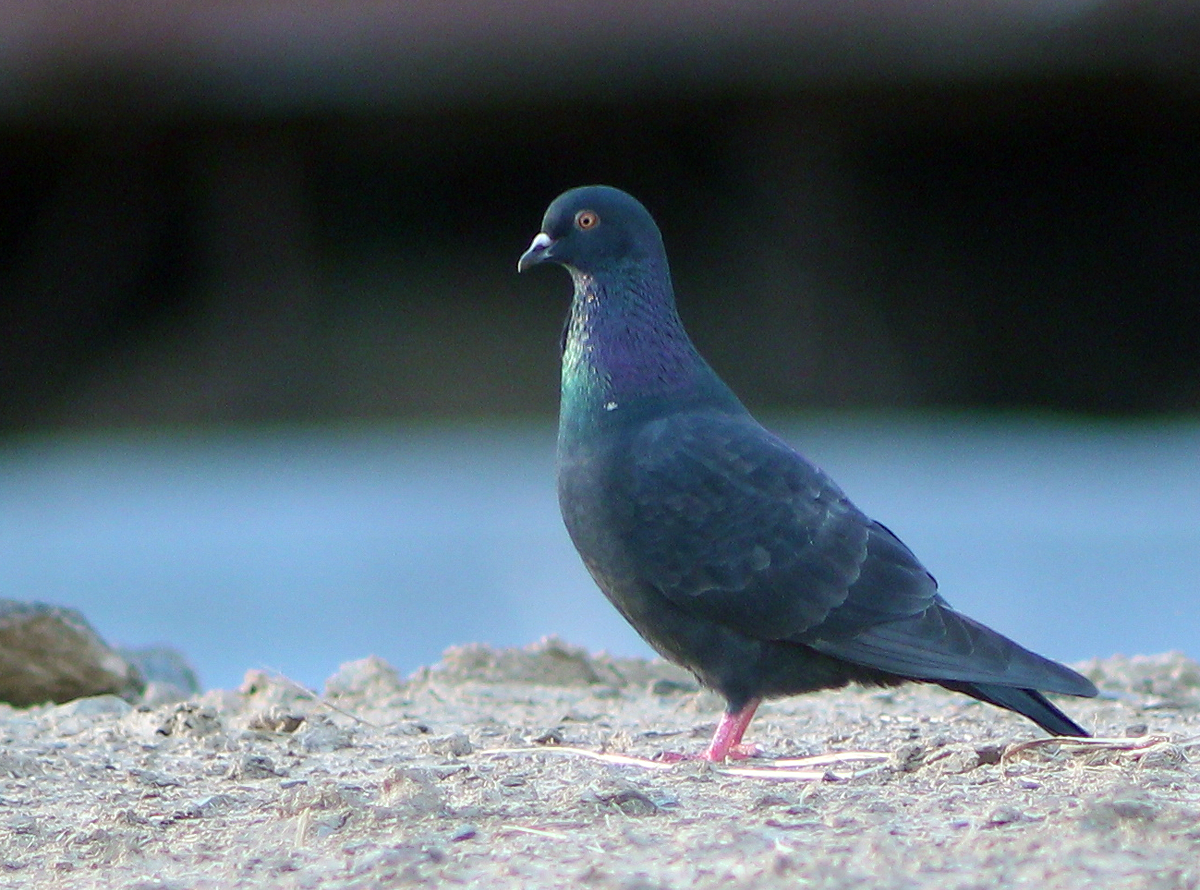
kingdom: Animalia
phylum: Chordata
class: Aves
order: Columbiformes
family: Columbidae
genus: Columba
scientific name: Columba livia
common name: Rock pigeon
